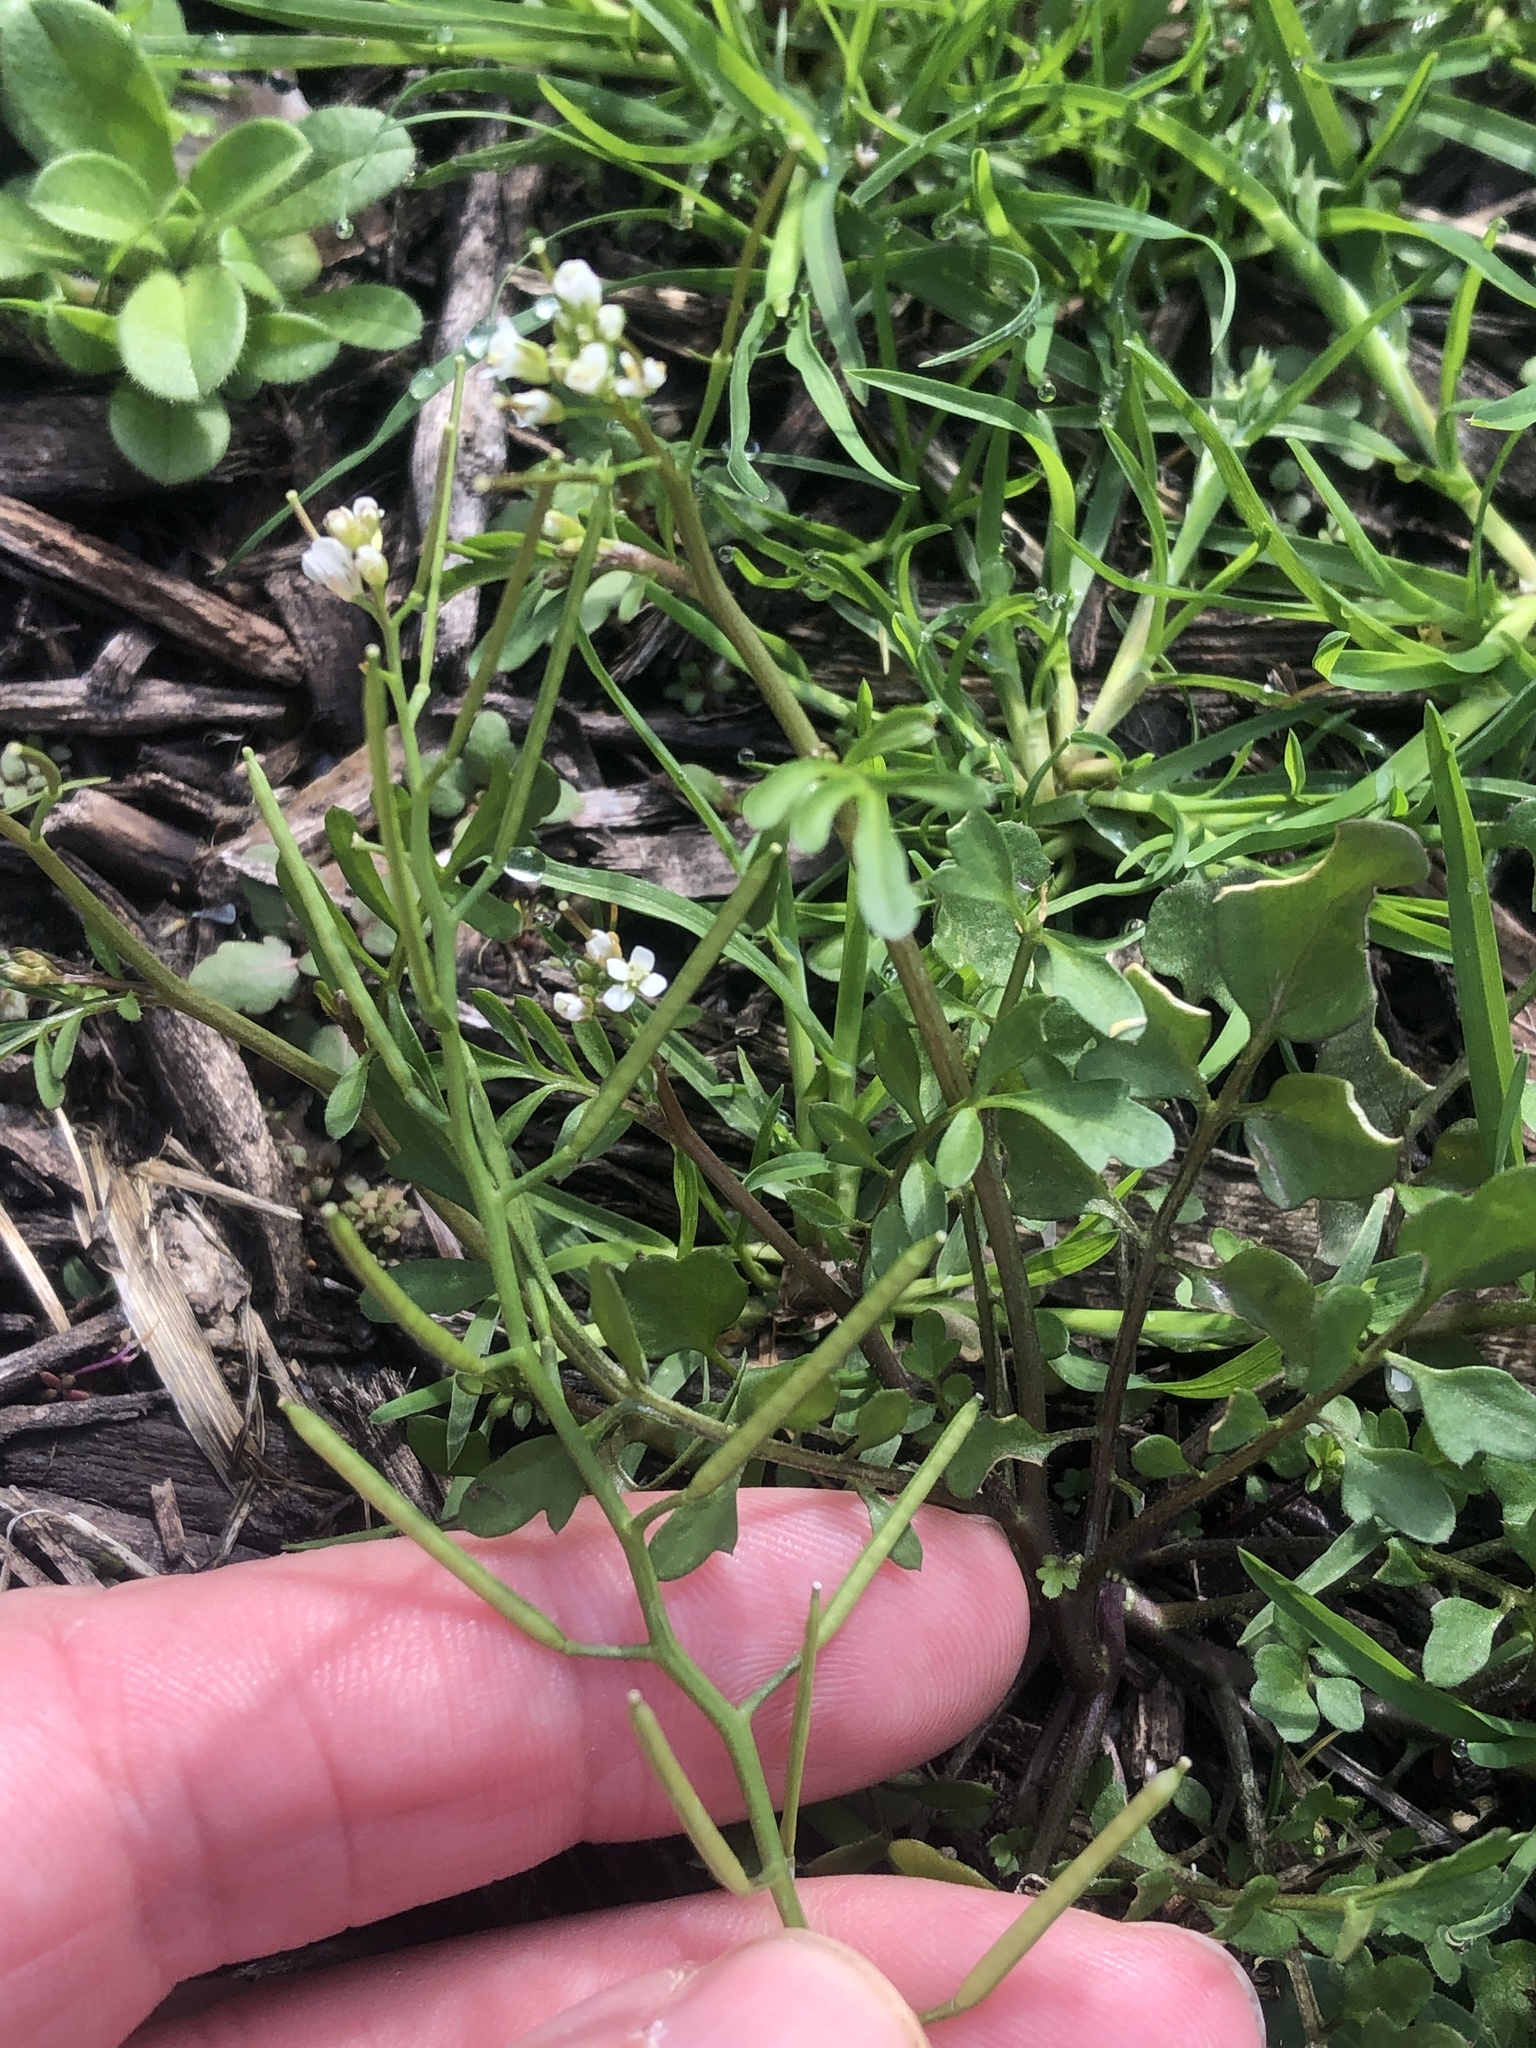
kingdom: Plantae
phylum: Tracheophyta
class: Magnoliopsida
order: Brassicales
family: Brassicaceae
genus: Cardamine
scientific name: Cardamine hirsuta
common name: Hairy bittercress
